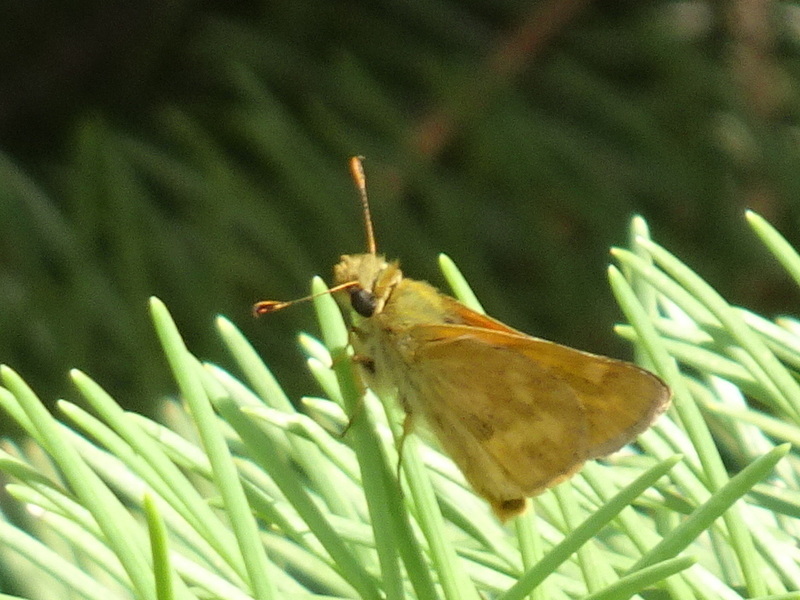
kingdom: Animalia
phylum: Arthropoda
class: Insecta
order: Lepidoptera
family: Hesperiidae
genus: Ochlodes
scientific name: Ochlodes sylvanoides
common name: Woodland skipper
